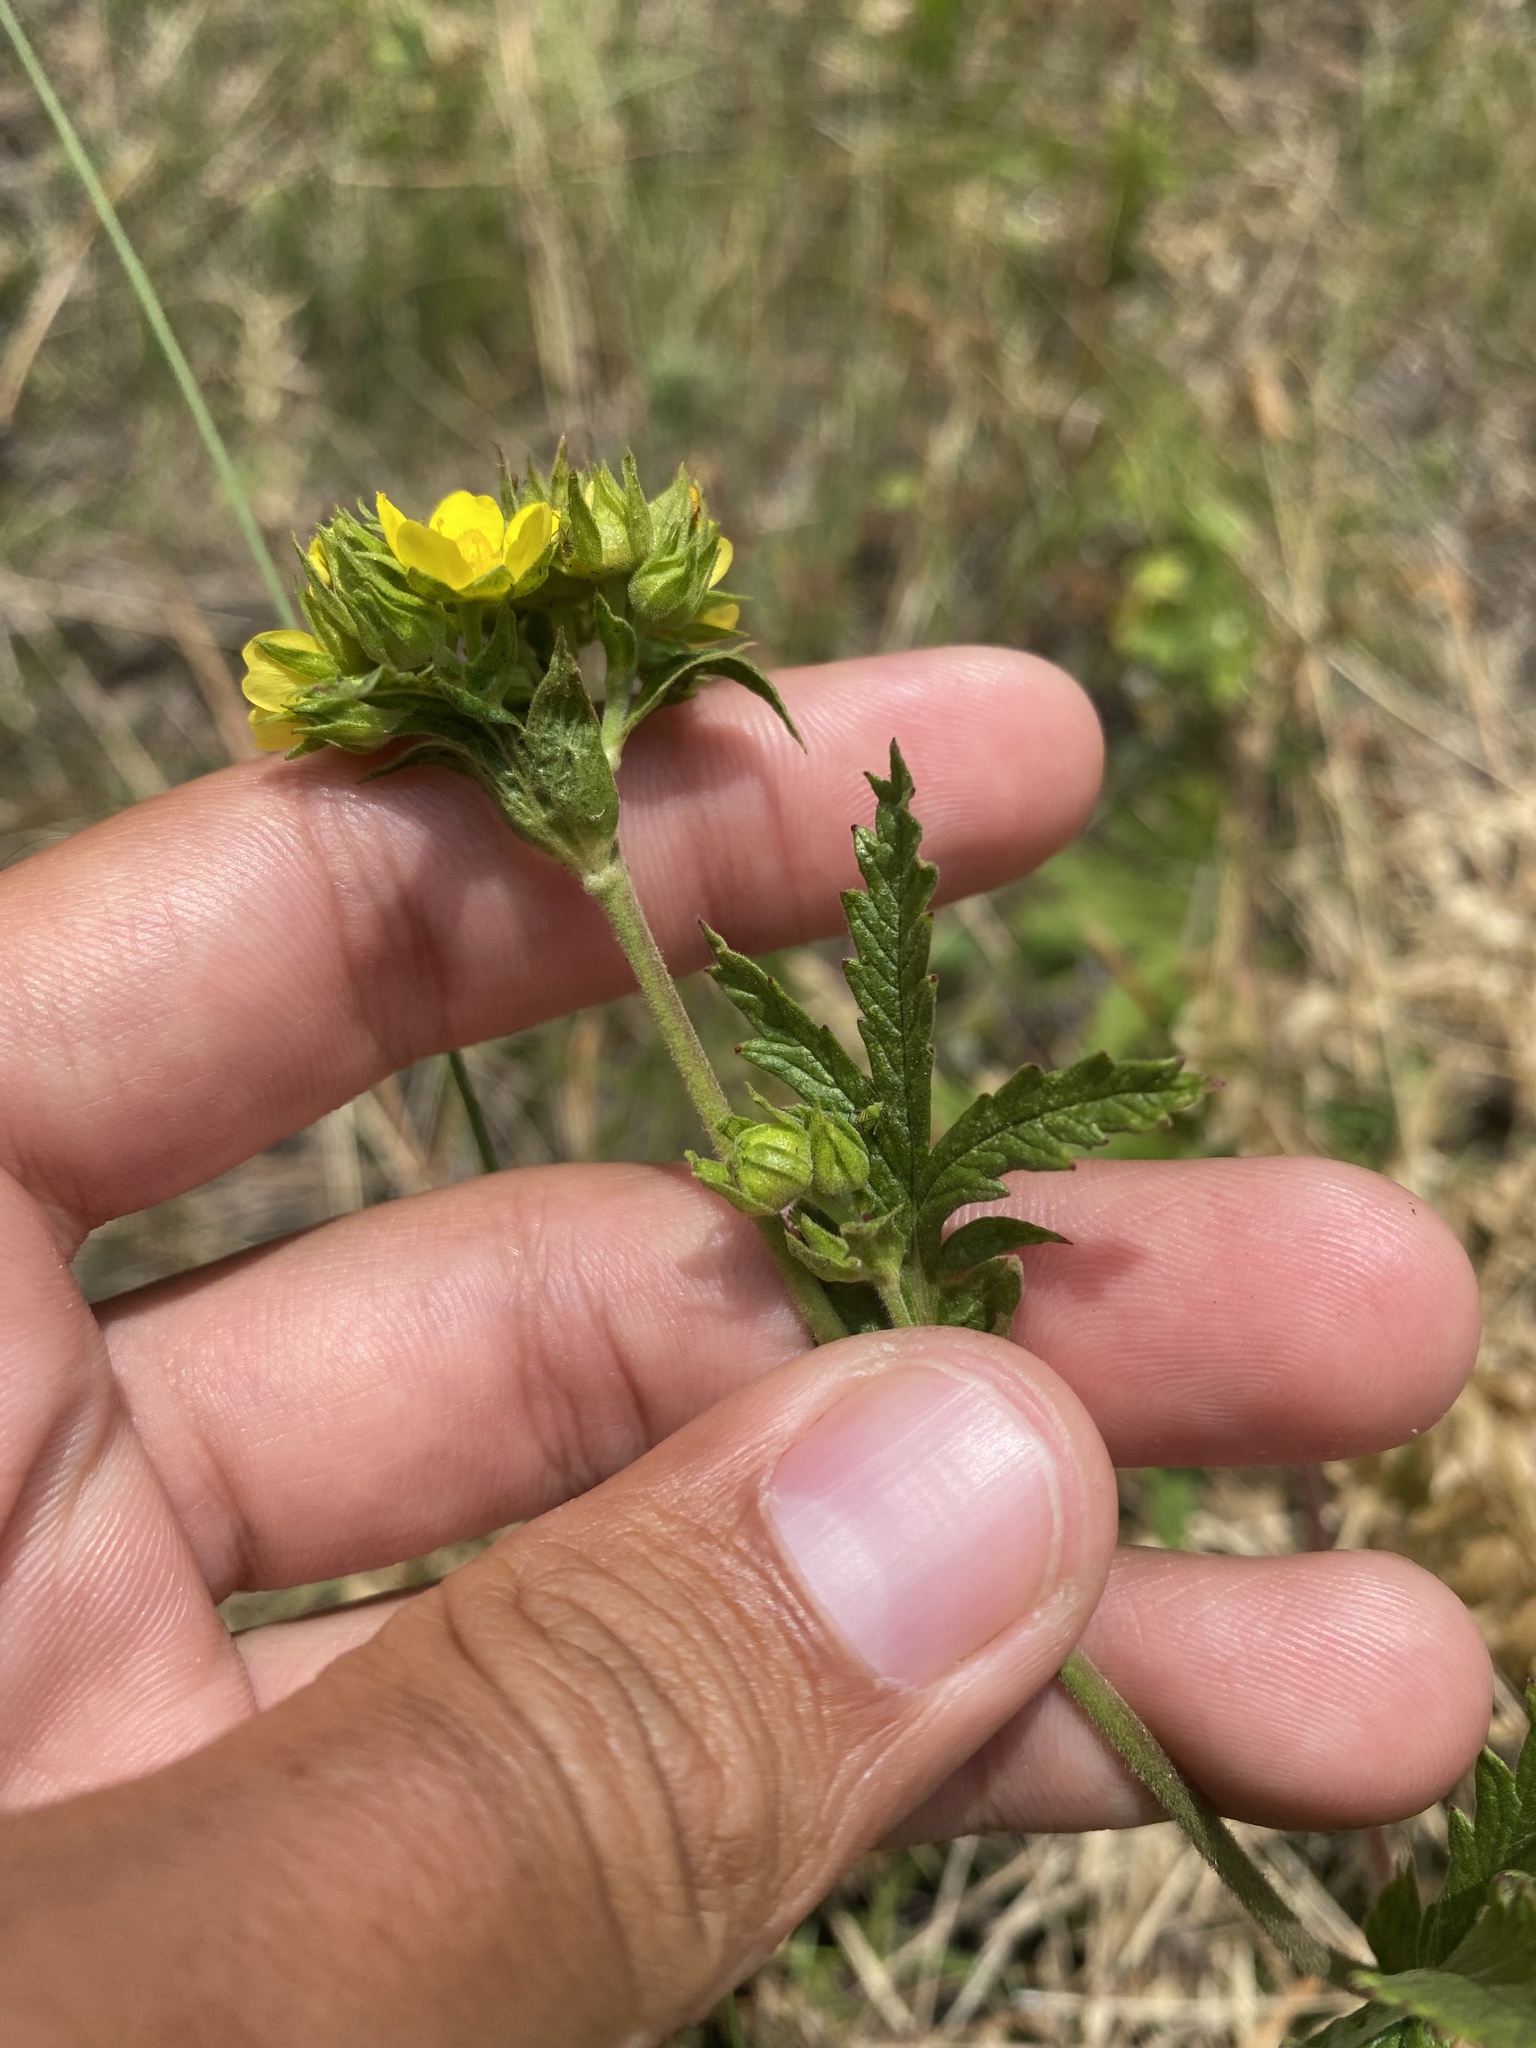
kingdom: Plantae
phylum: Tracheophyta
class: Magnoliopsida
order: Rosales
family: Rosaceae
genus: Potentilla
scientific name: Potentilla longifolia
